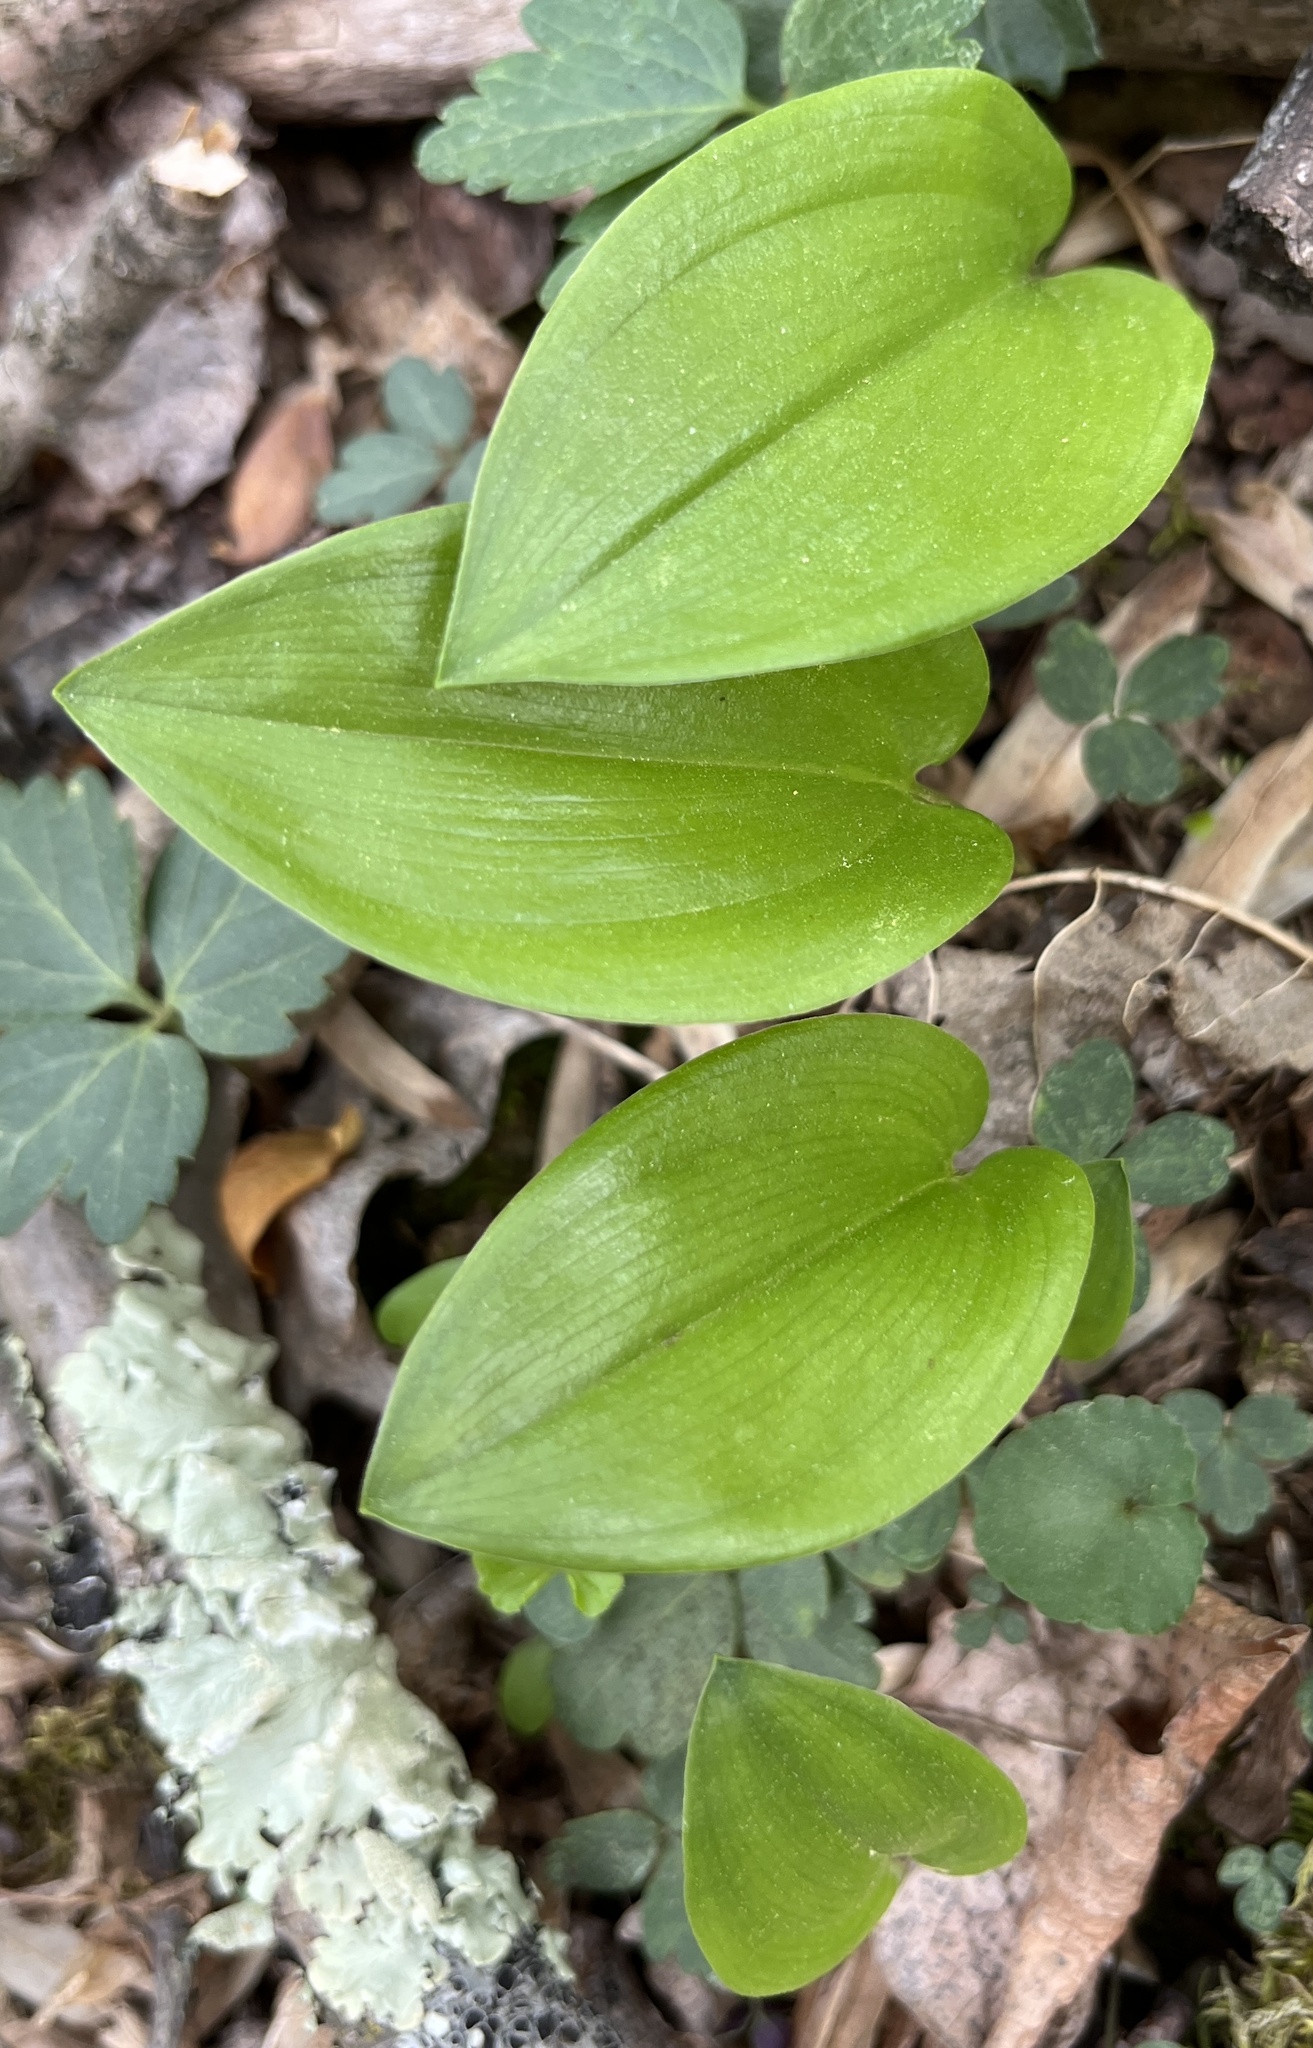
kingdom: Plantae
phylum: Tracheophyta
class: Liliopsida
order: Asparagales
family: Asparagaceae
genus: Maianthemum
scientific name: Maianthemum canadense
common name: False lily-of-the-valley
